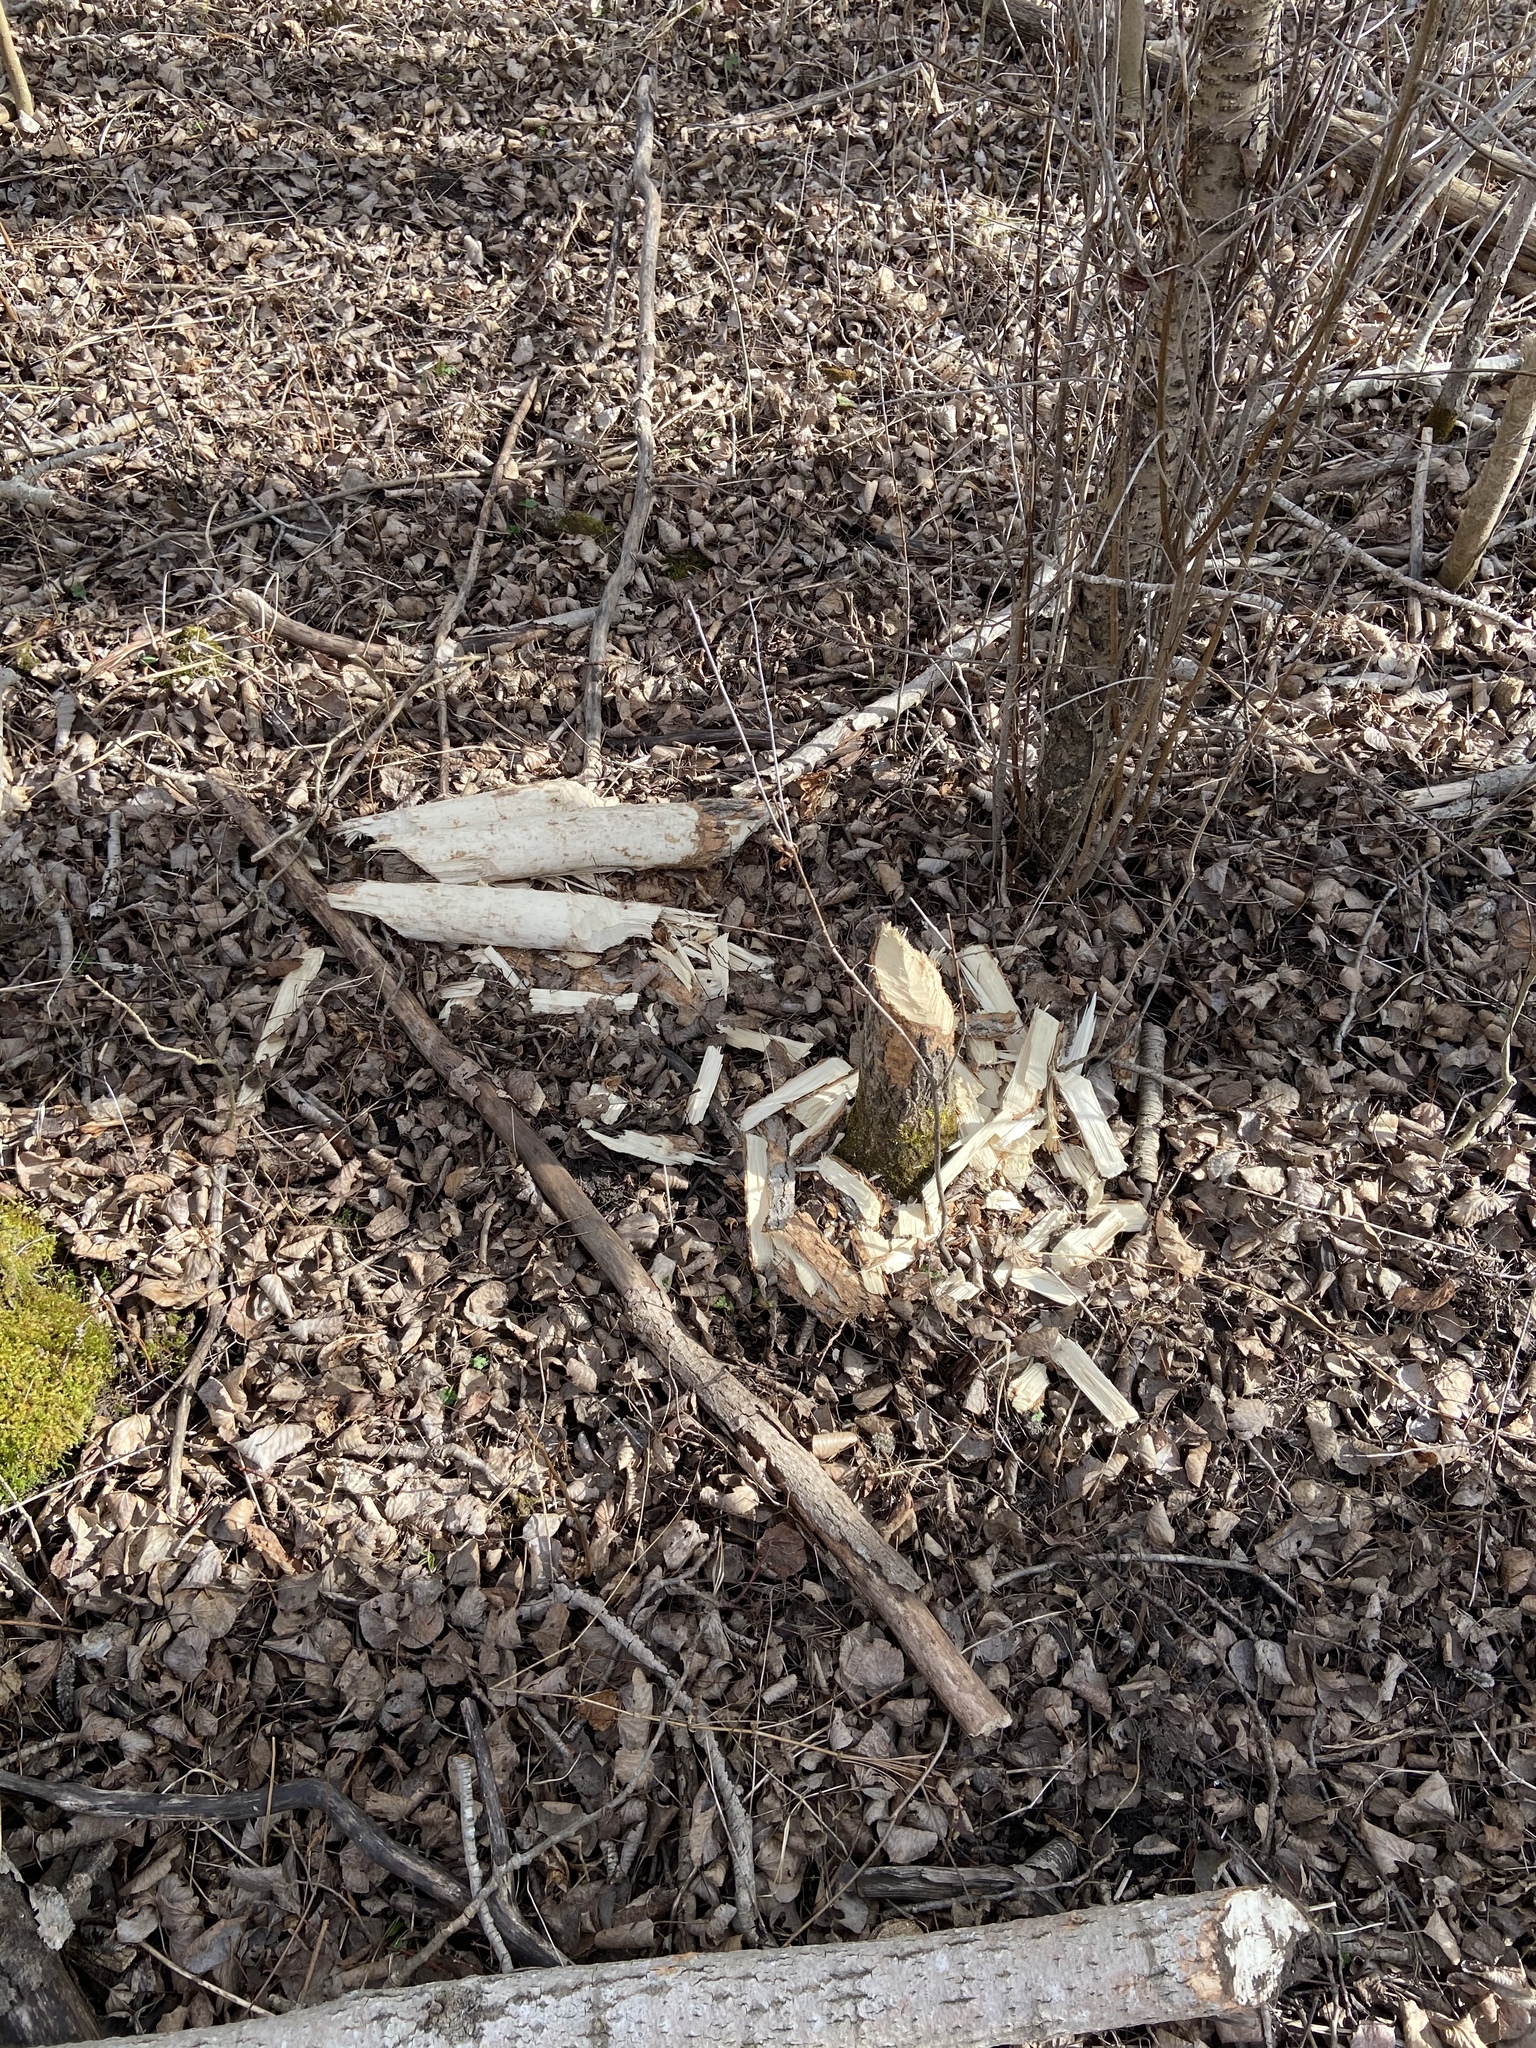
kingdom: Animalia
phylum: Chordata
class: Mammalia
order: Rodentia
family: Castoridae
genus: Castor
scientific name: Castor canadensis
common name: American beaver
